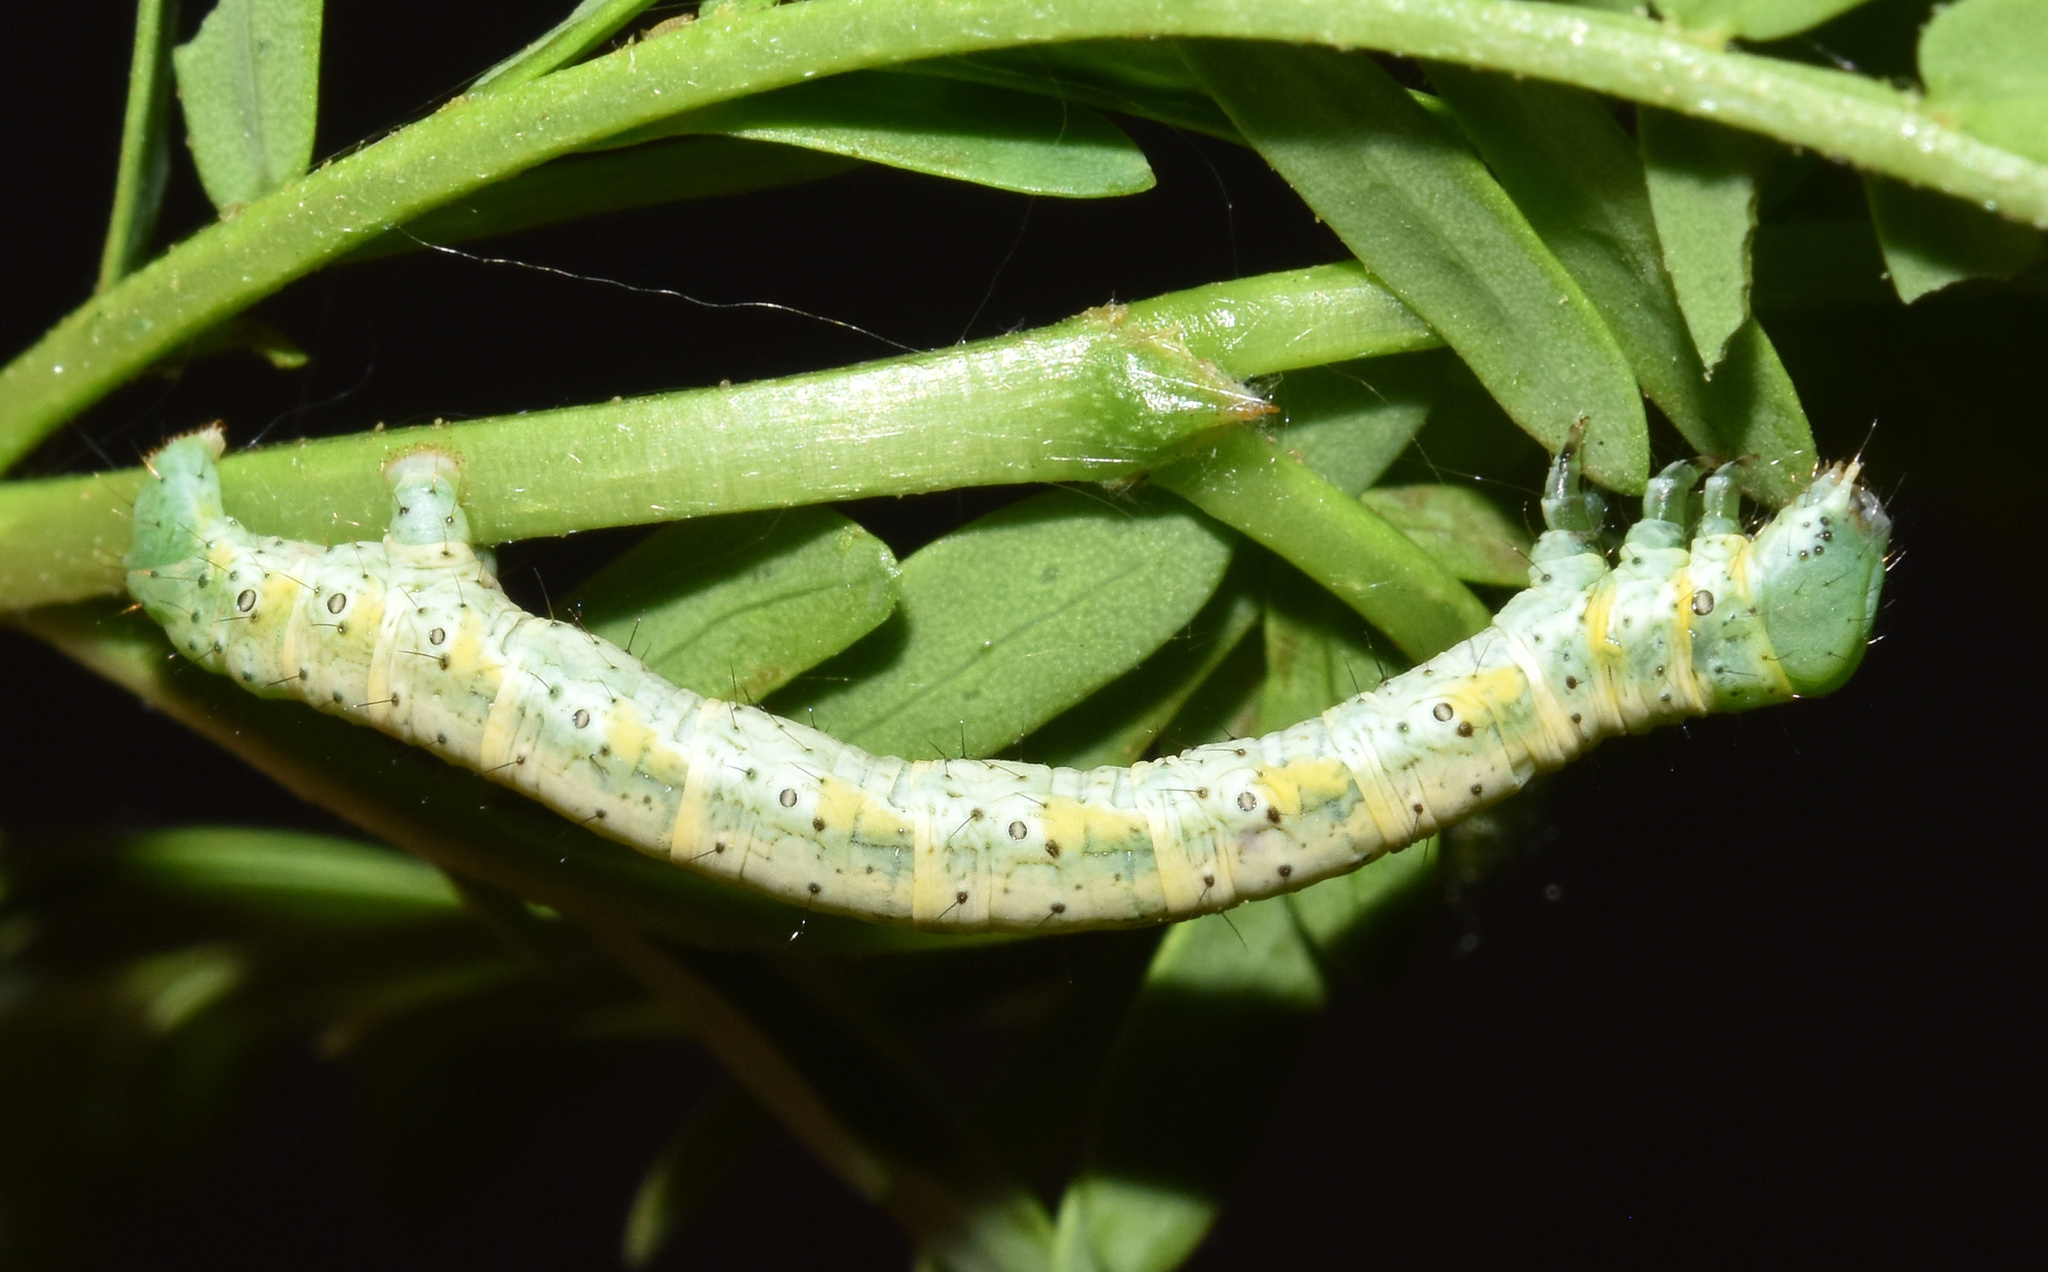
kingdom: Animalia
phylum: Arthropoda
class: Insecta
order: Lepidoptera
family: Geometridae
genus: Chiasmia
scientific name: Chiasmia brongusaria
